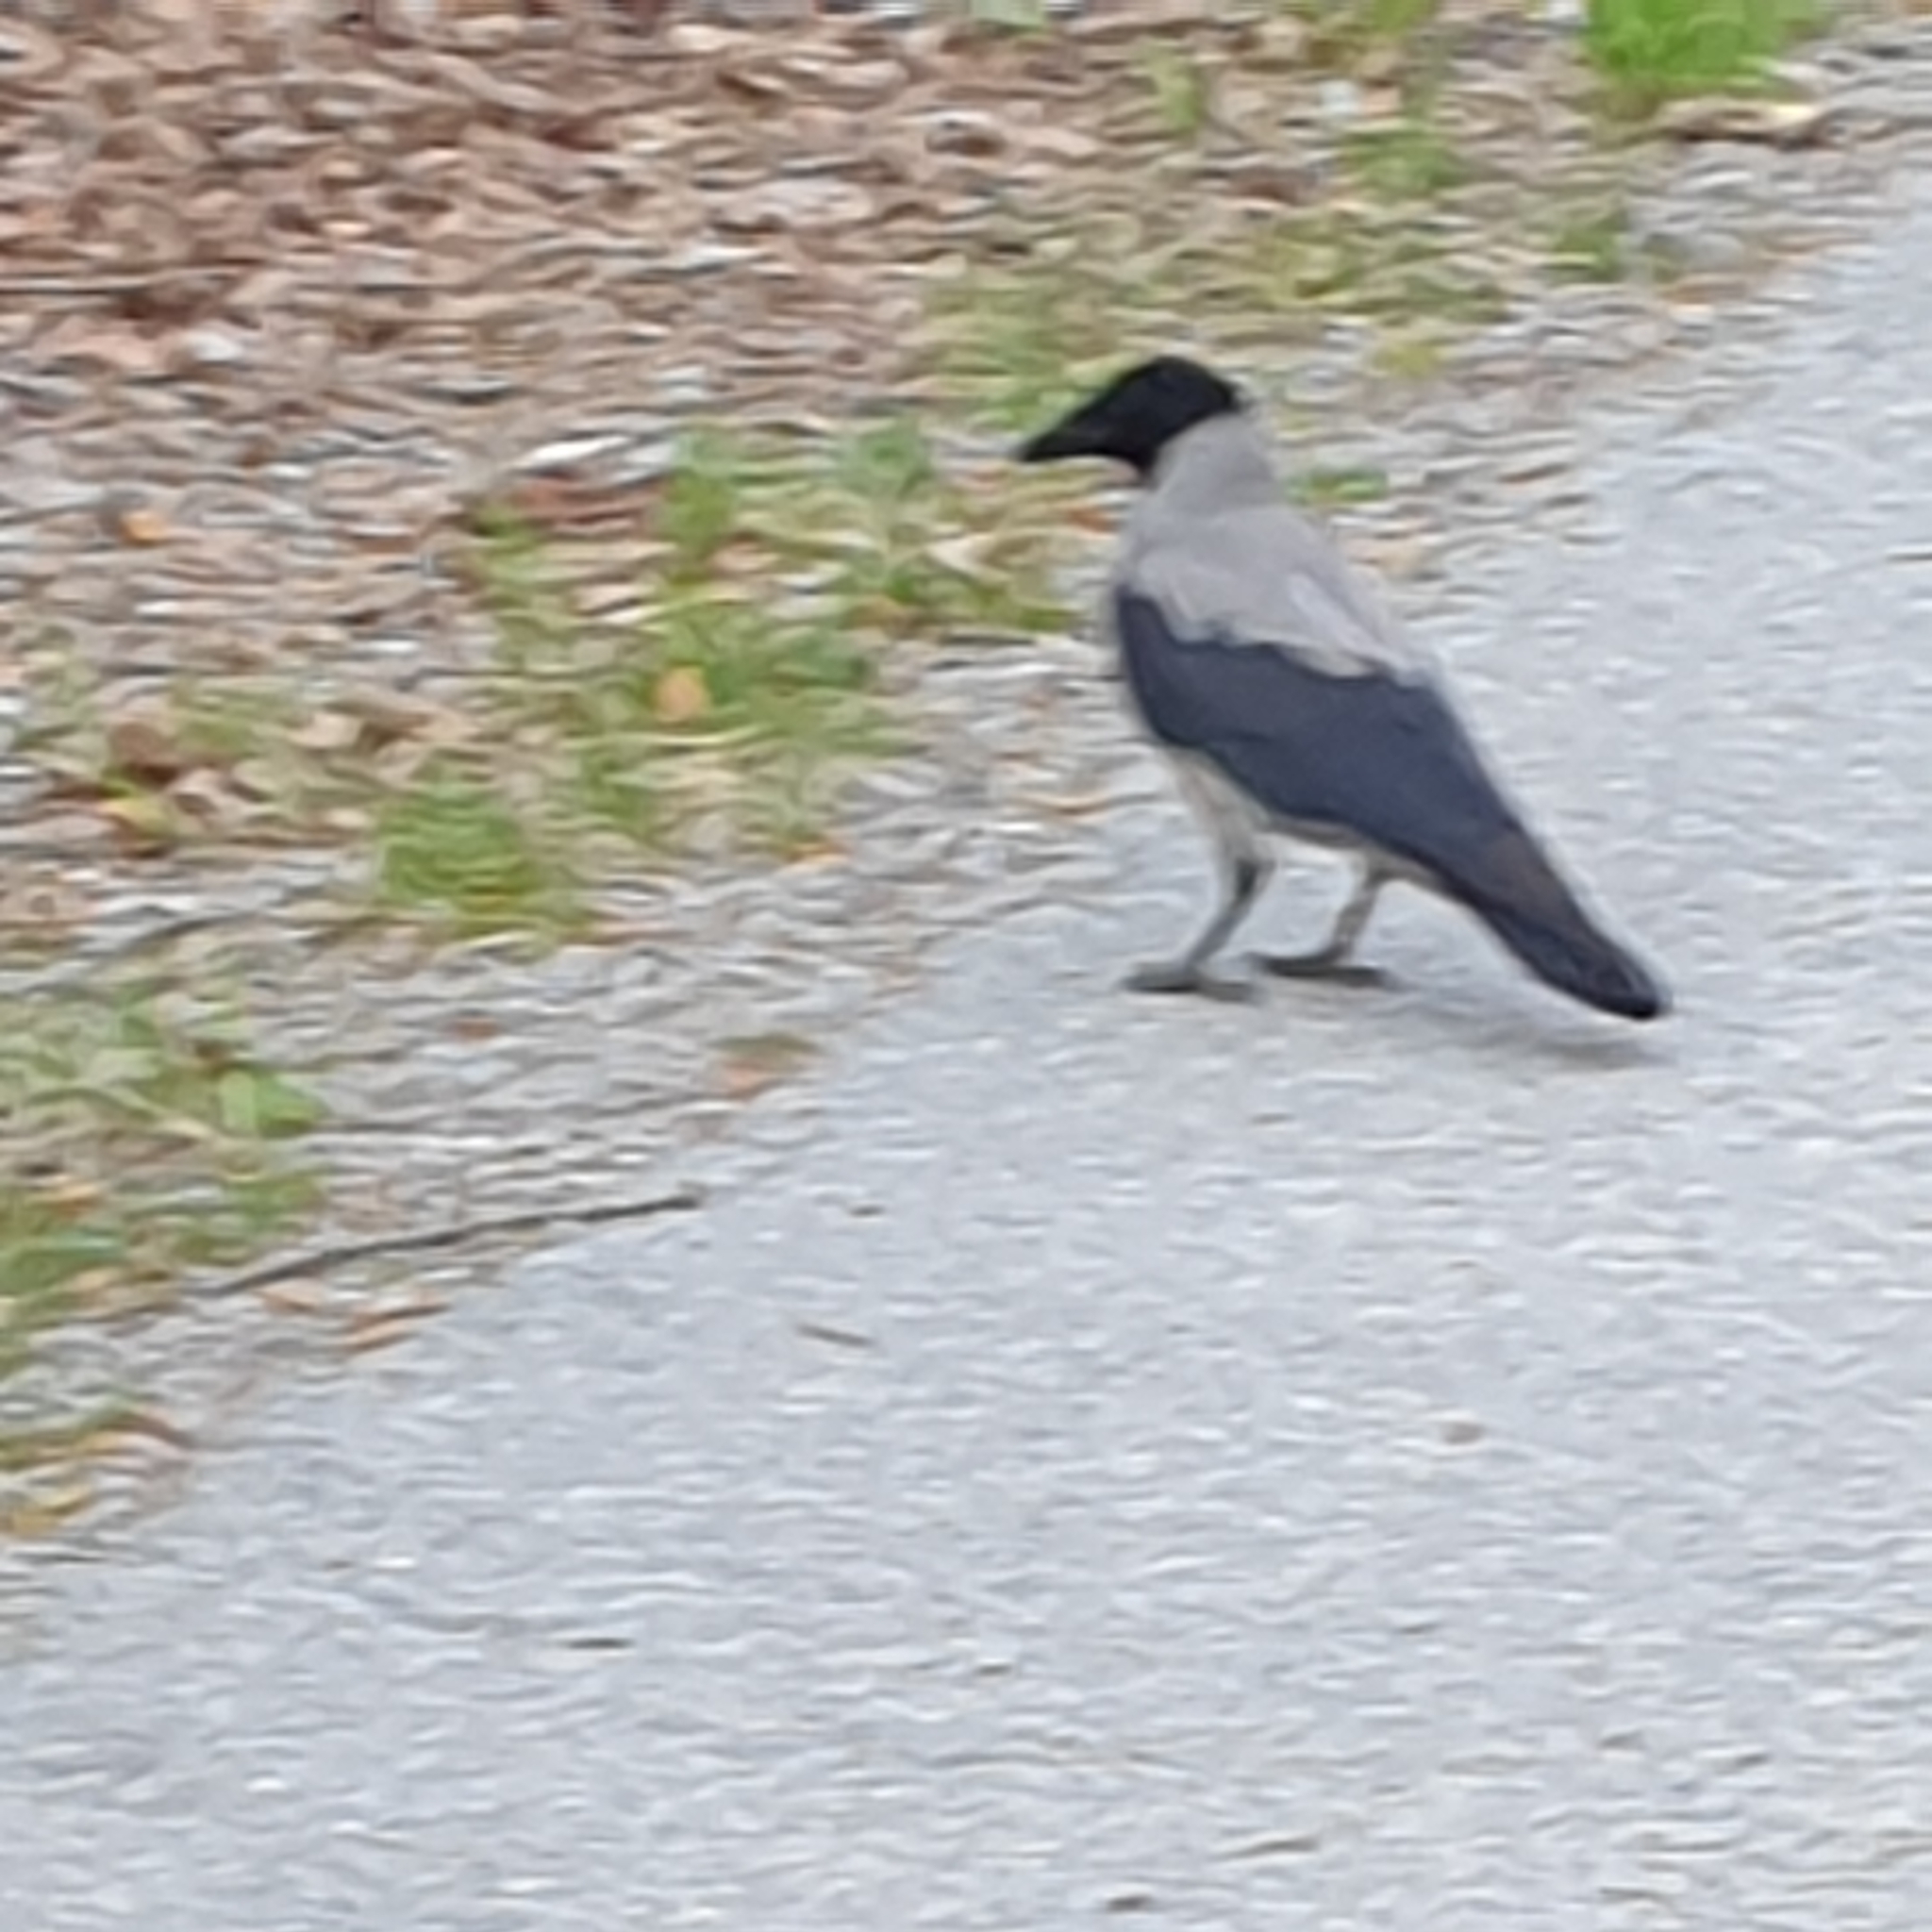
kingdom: Animalia
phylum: Chordata
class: Aves
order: Passeriformes
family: Corvidae
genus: Corvus
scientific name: Corvus cornix
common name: Hooded crow
